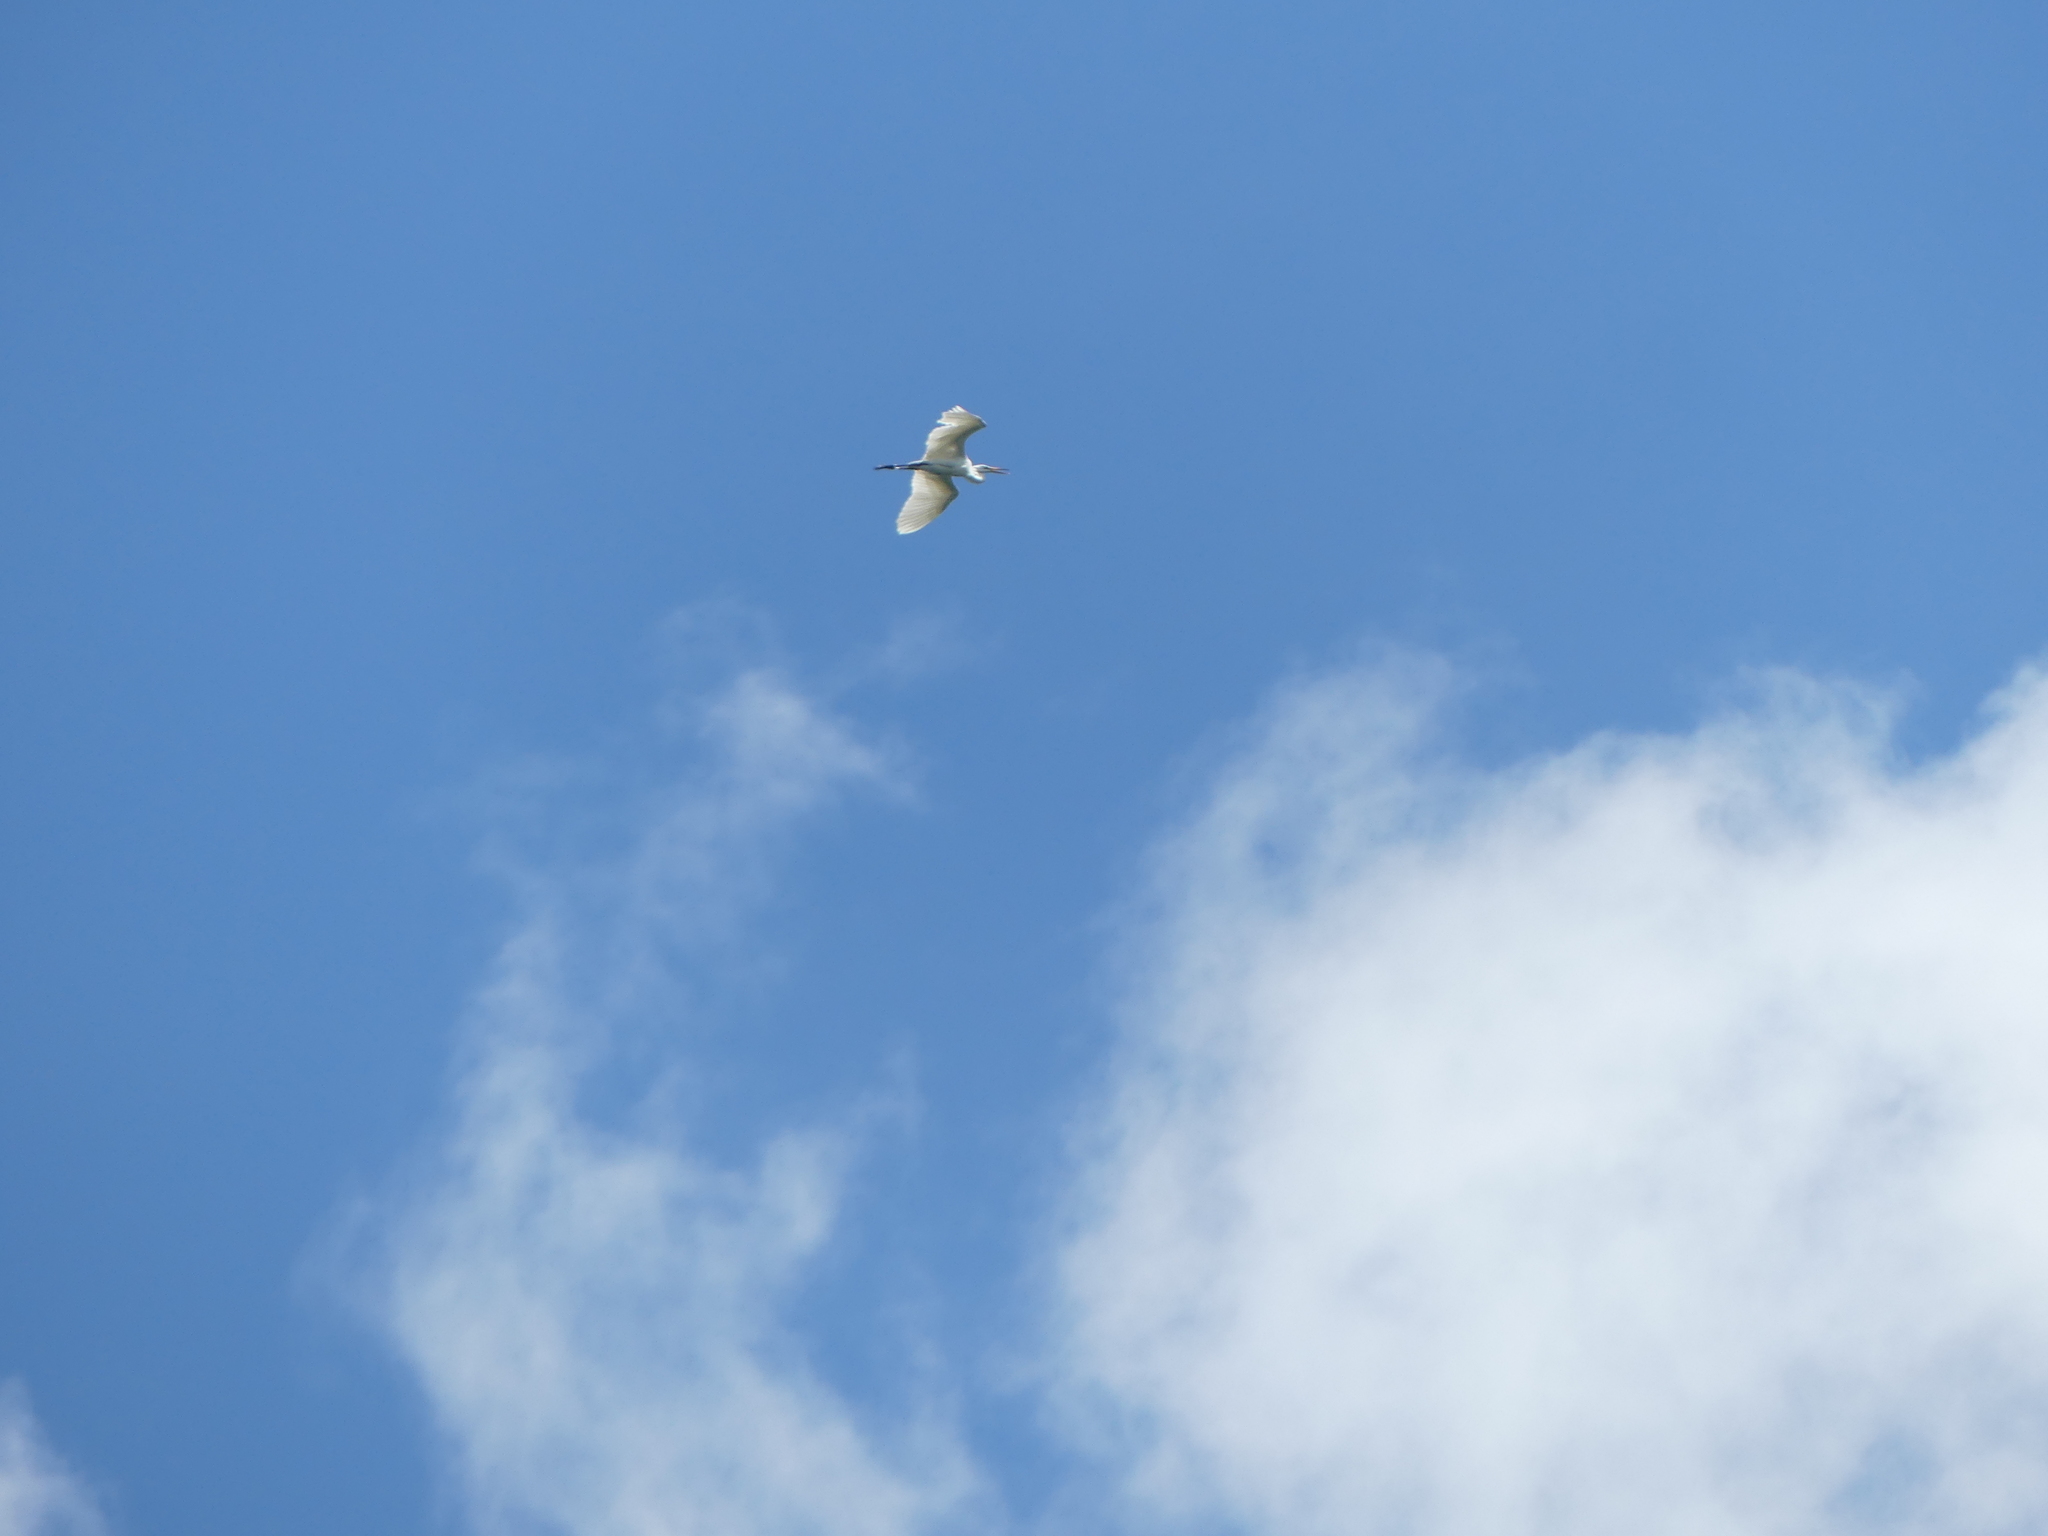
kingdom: Animalia
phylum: Chordata
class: Aves
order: Pelecaniformes
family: Ardeidae
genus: Ardea
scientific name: Ardea alba
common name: Great egret
